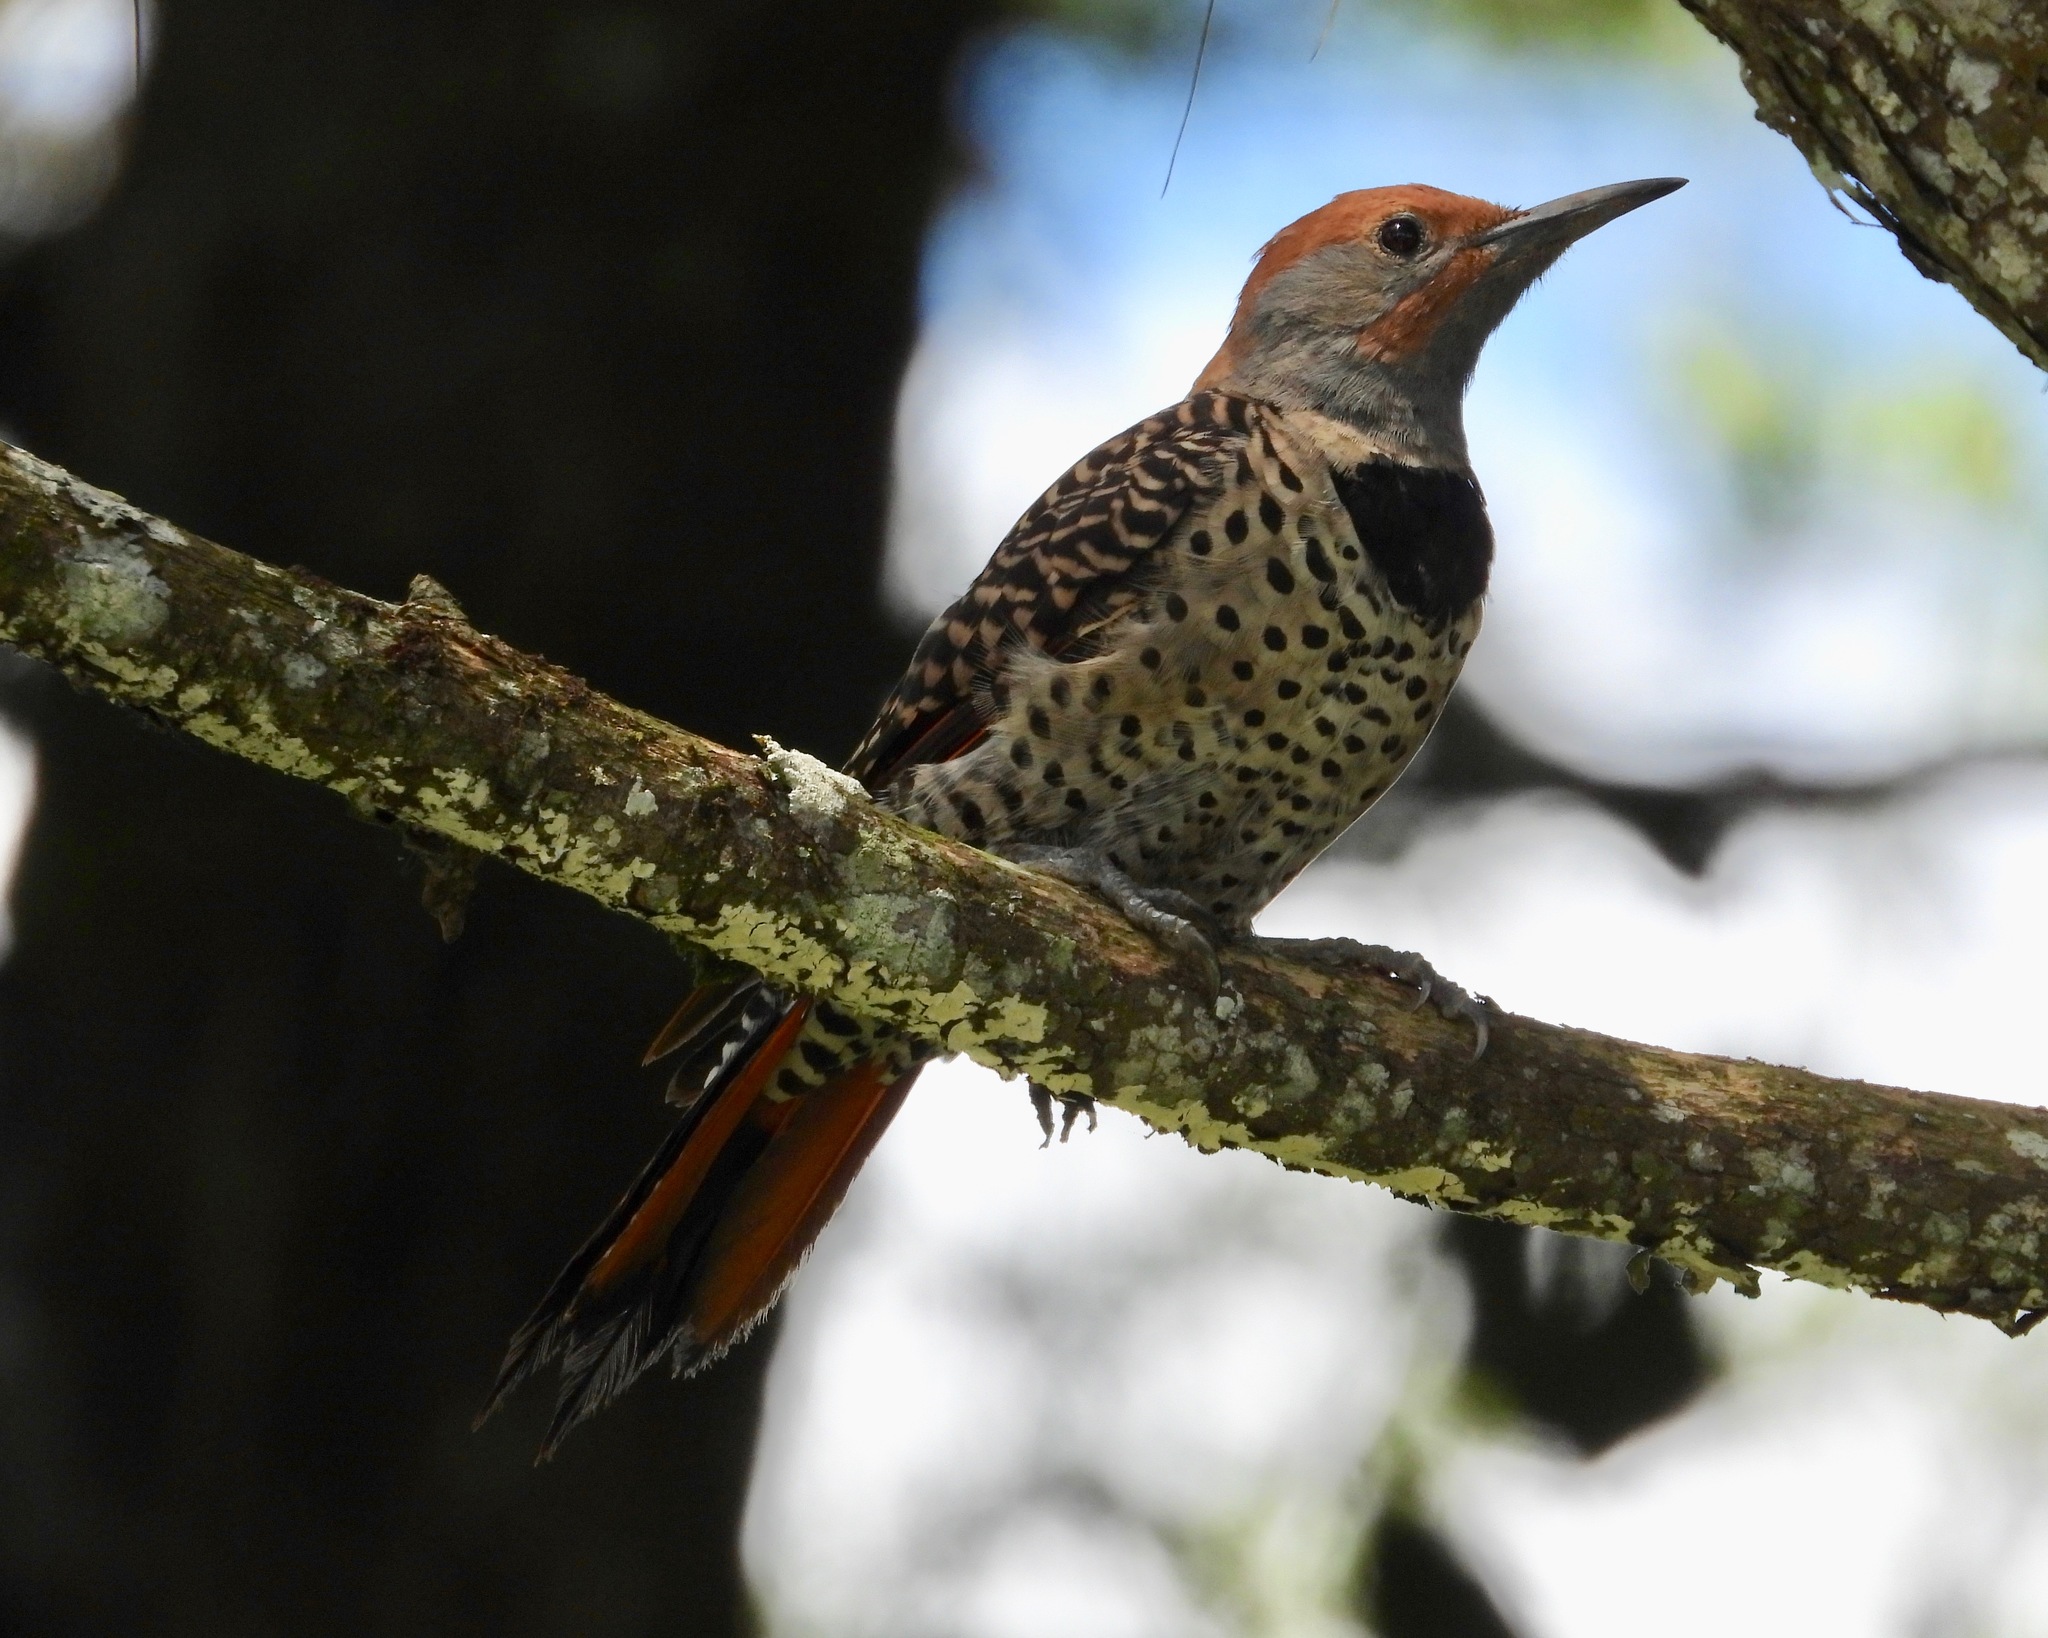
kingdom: Animalia
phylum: Chordata
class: Aves
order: Piciformes
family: Picidae
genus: Colaptes
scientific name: Colaptes auratus
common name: Northern flicker
